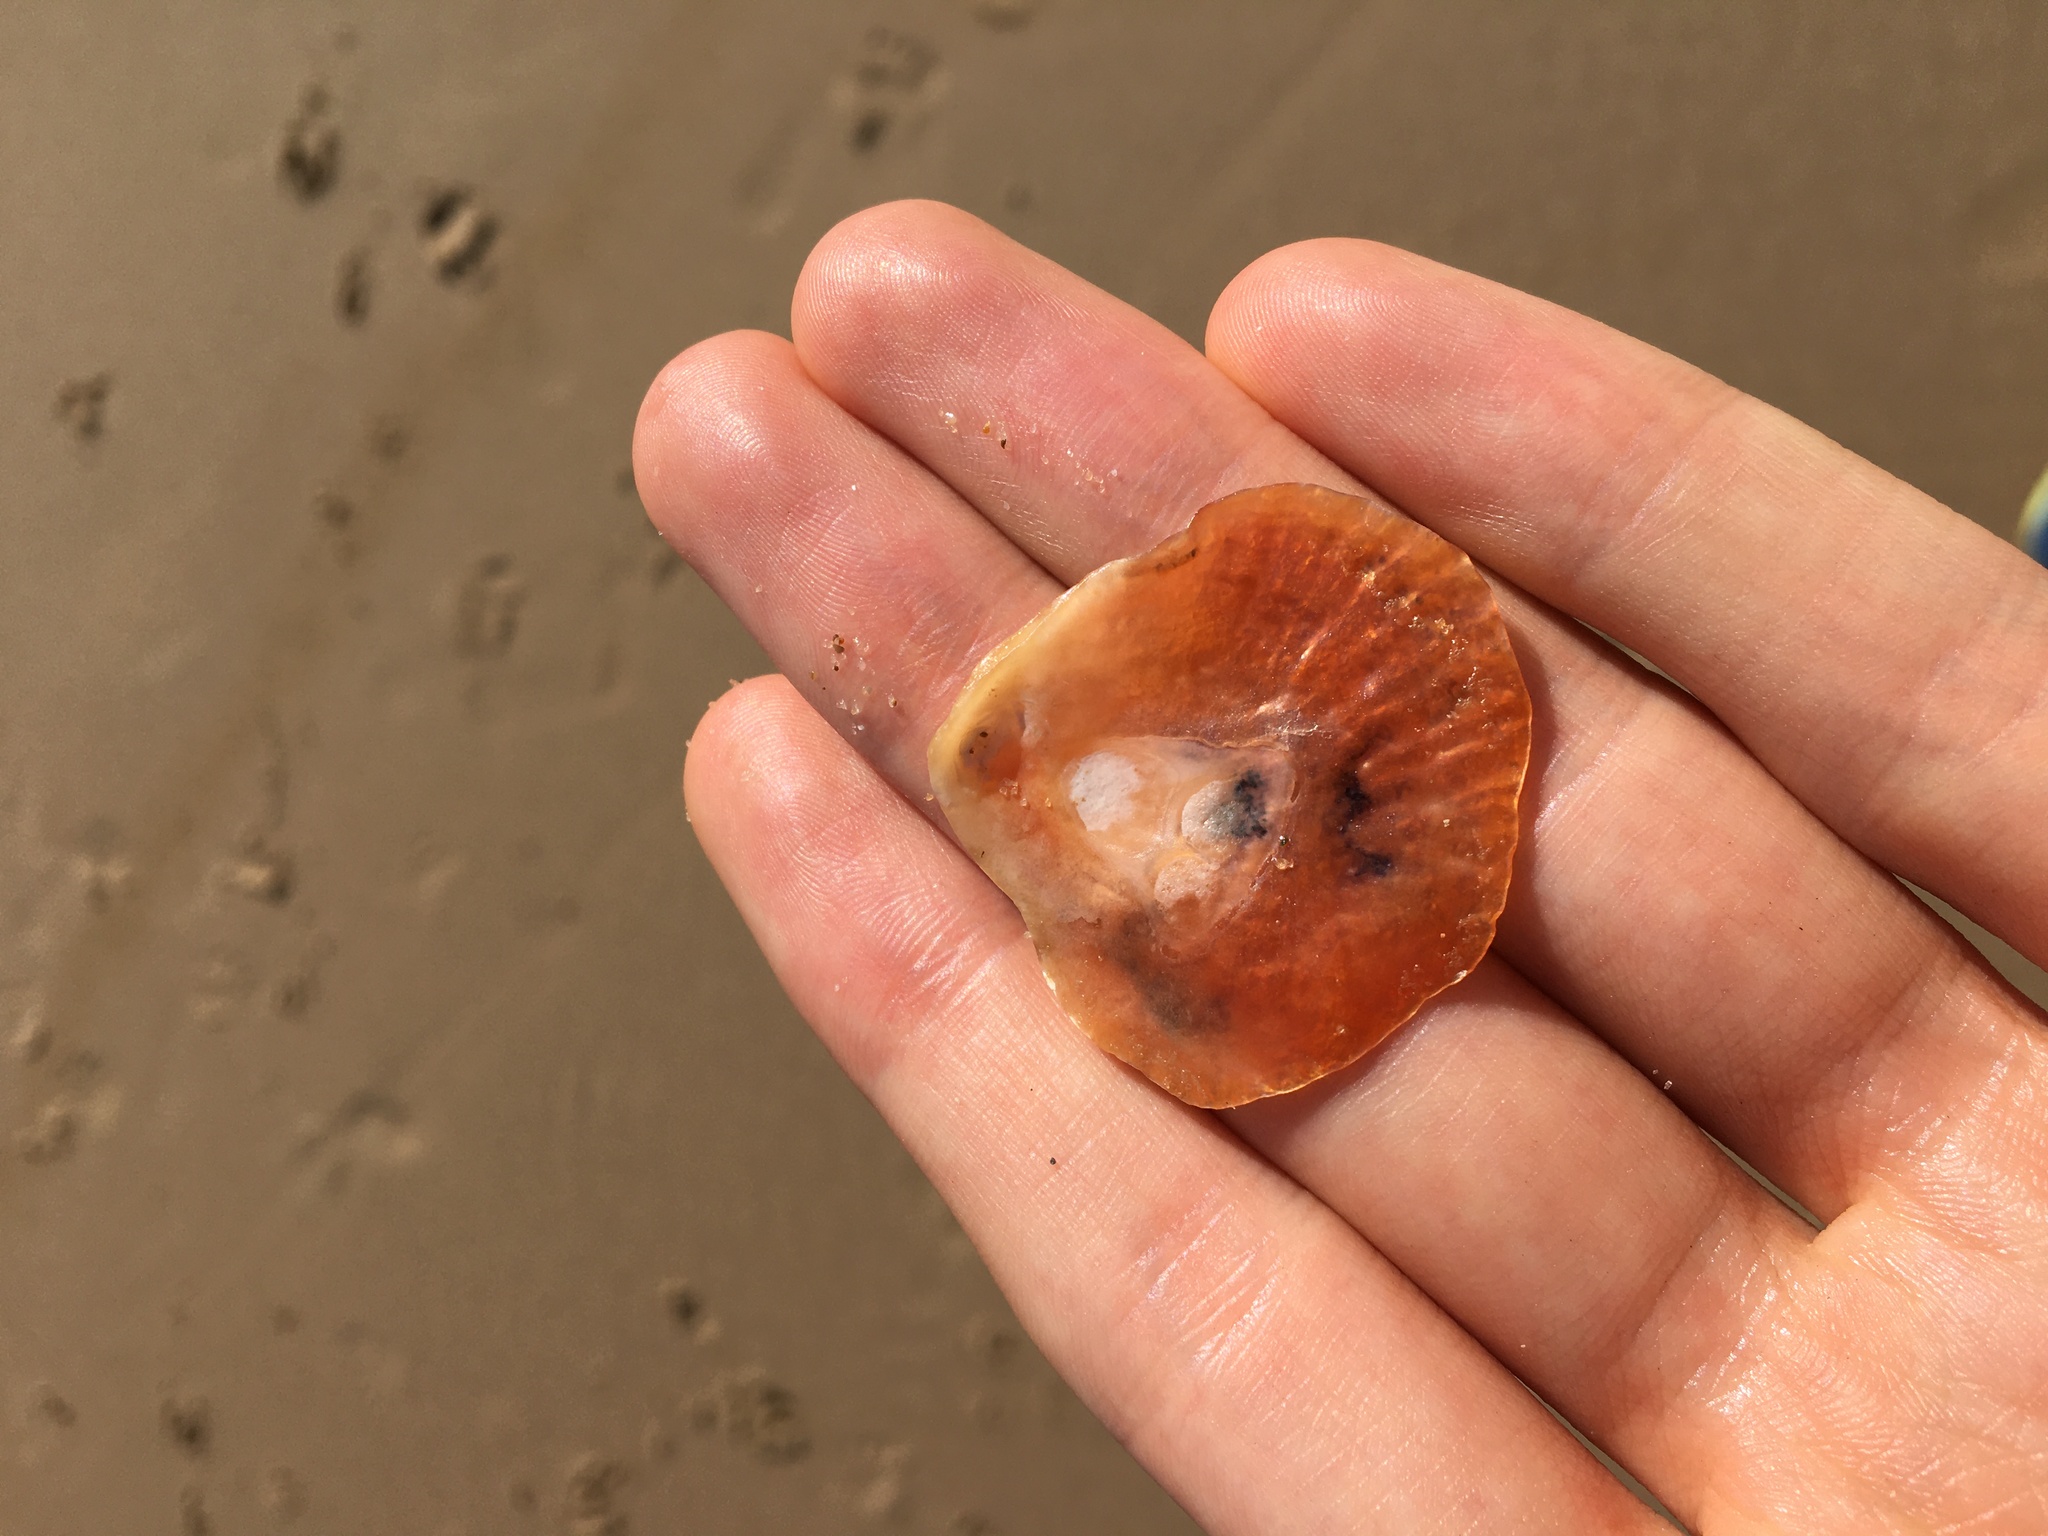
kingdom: Animalia
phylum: Mollusca
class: Bivalvia
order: Pectinida
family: Anomiidae
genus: Anomia
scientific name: Anomia trigonopsis
